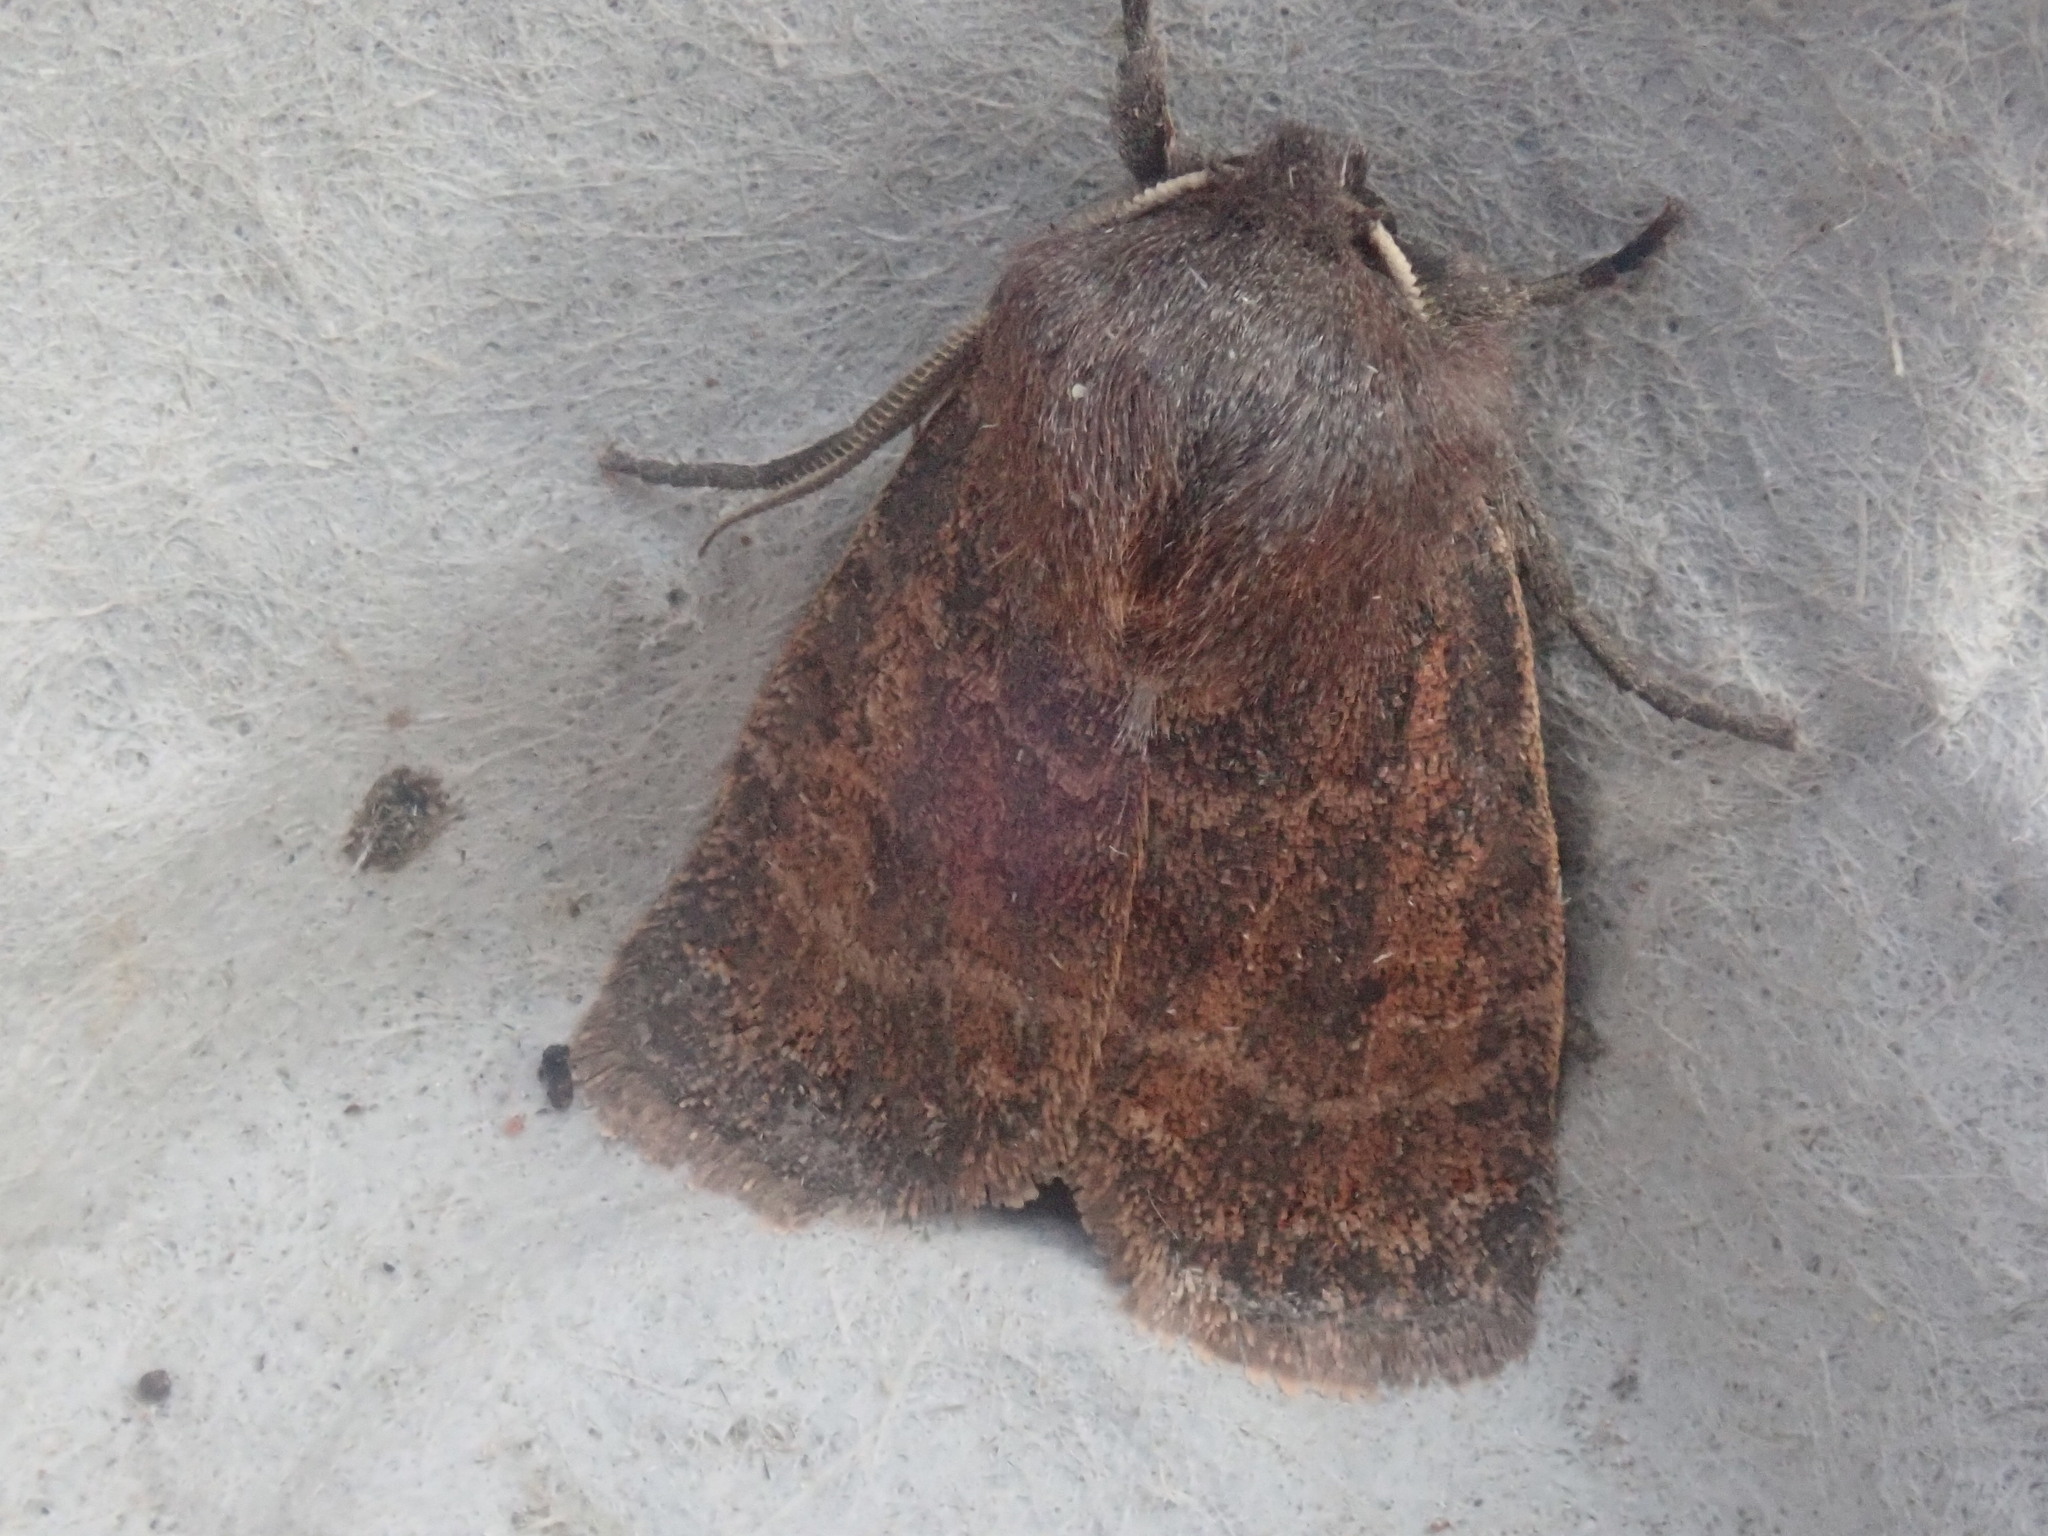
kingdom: Animalia
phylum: Arthropoda
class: Insecta
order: Lepidoptera
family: Noctuidae
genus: Homoglaea
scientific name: Homoglaea hircina
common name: Goat sallow
